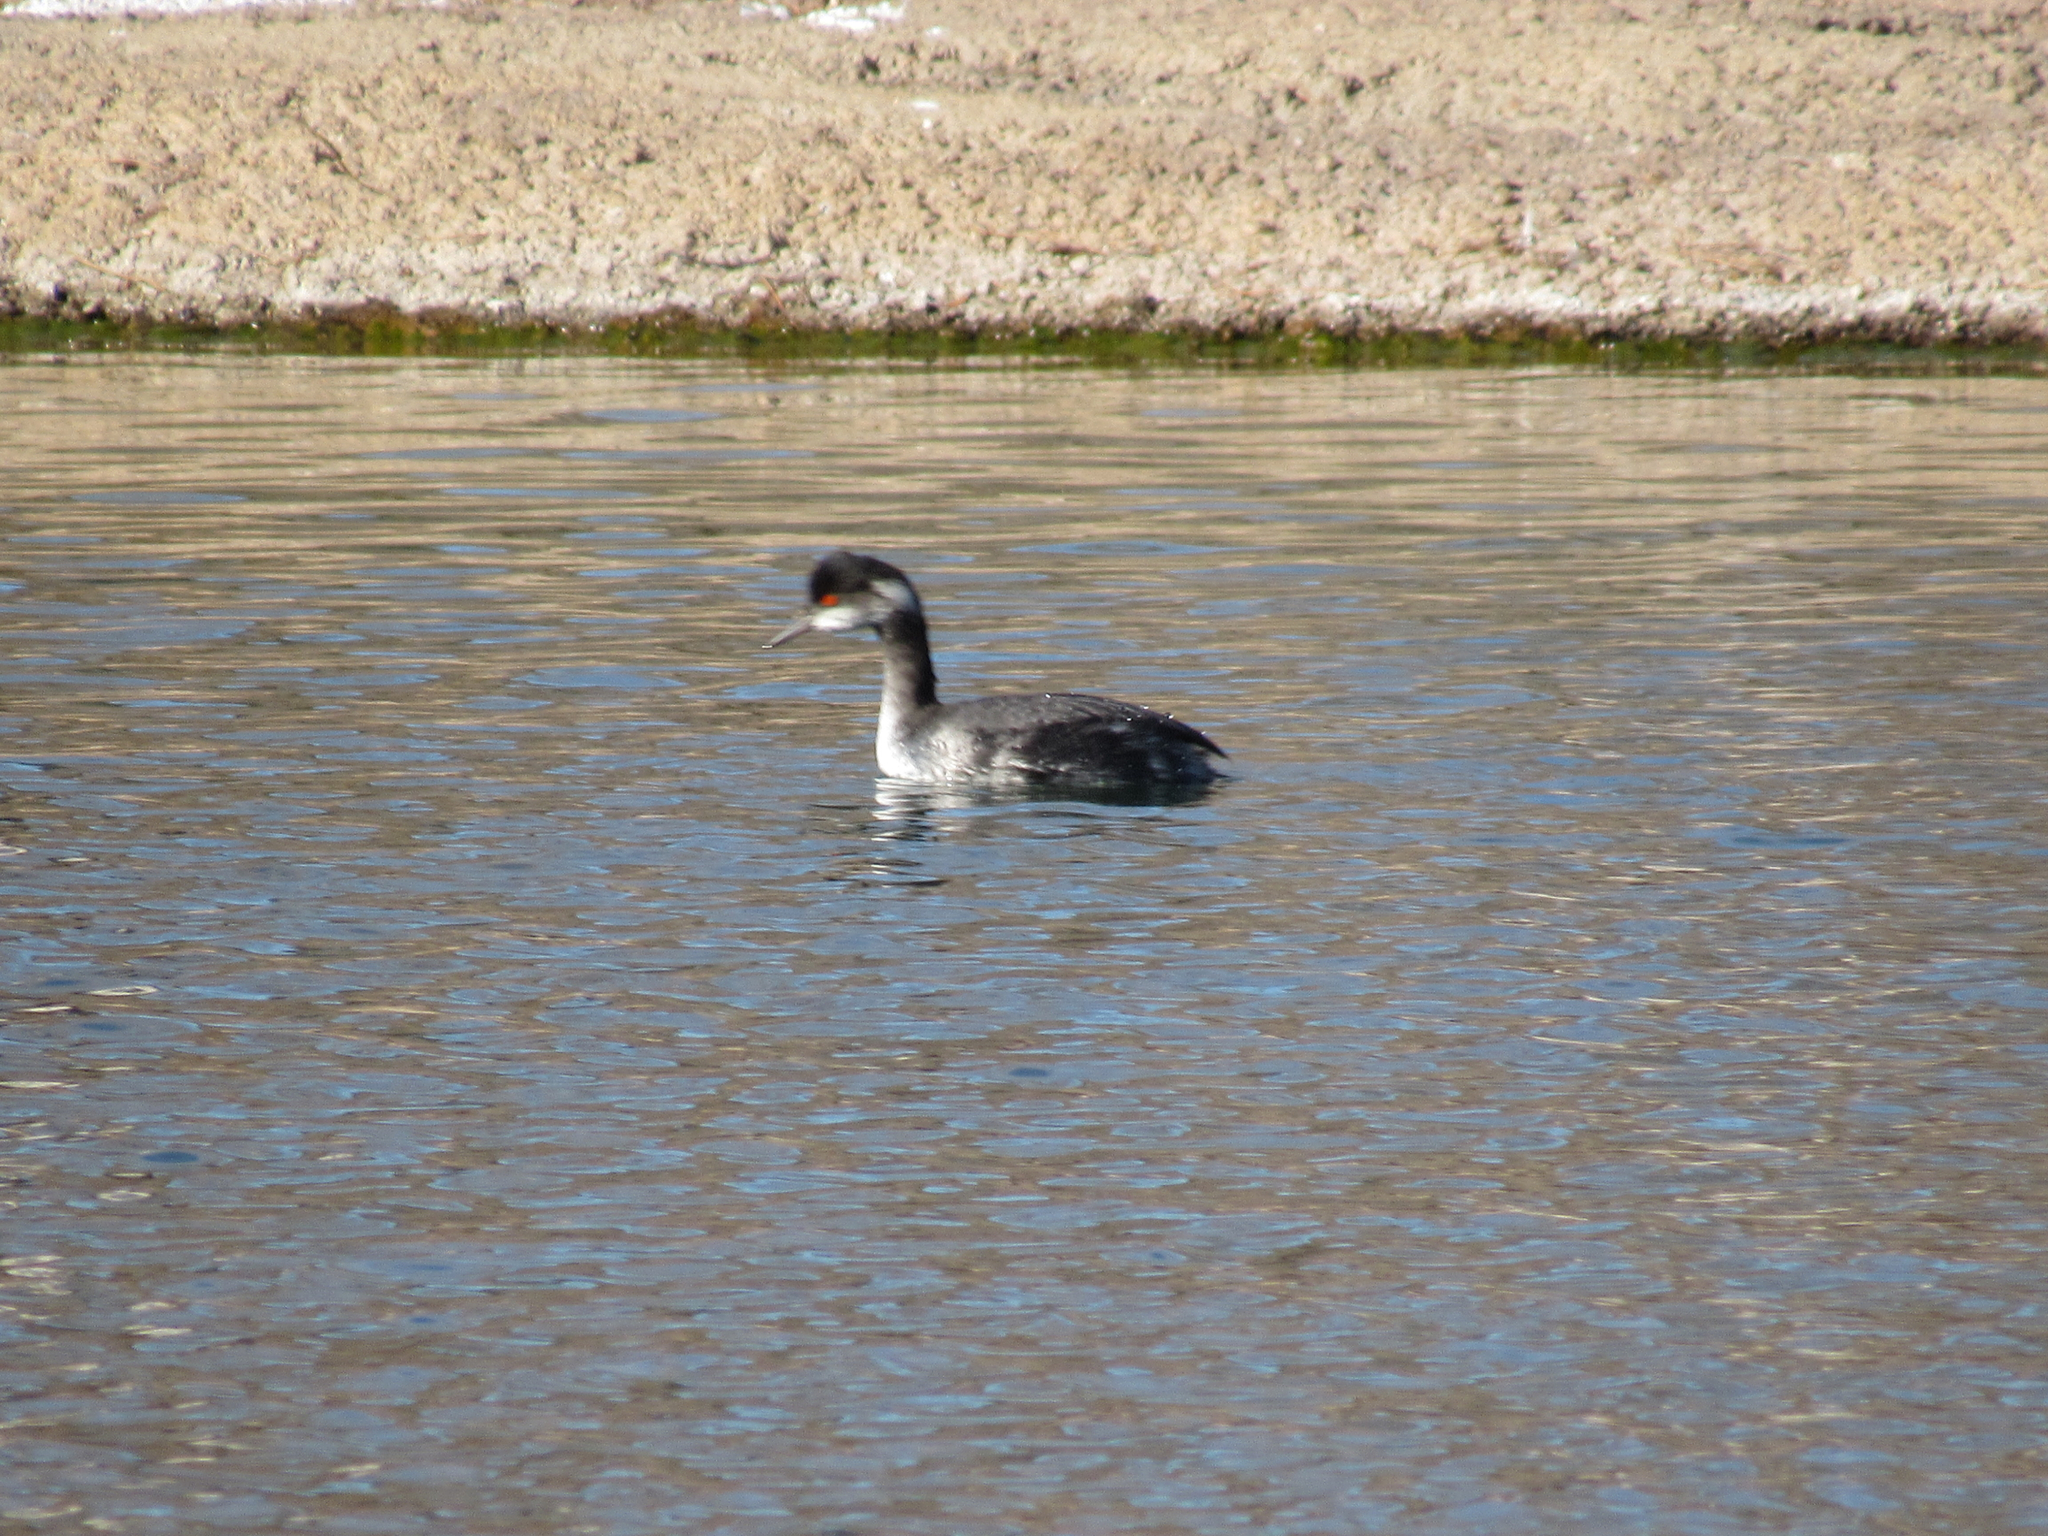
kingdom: Animalia
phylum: Chordata
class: Aves
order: Podicipediformes
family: Podicipedidae
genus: Podiceps
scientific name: Podiceps nigricollis
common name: Black-necked grebe
